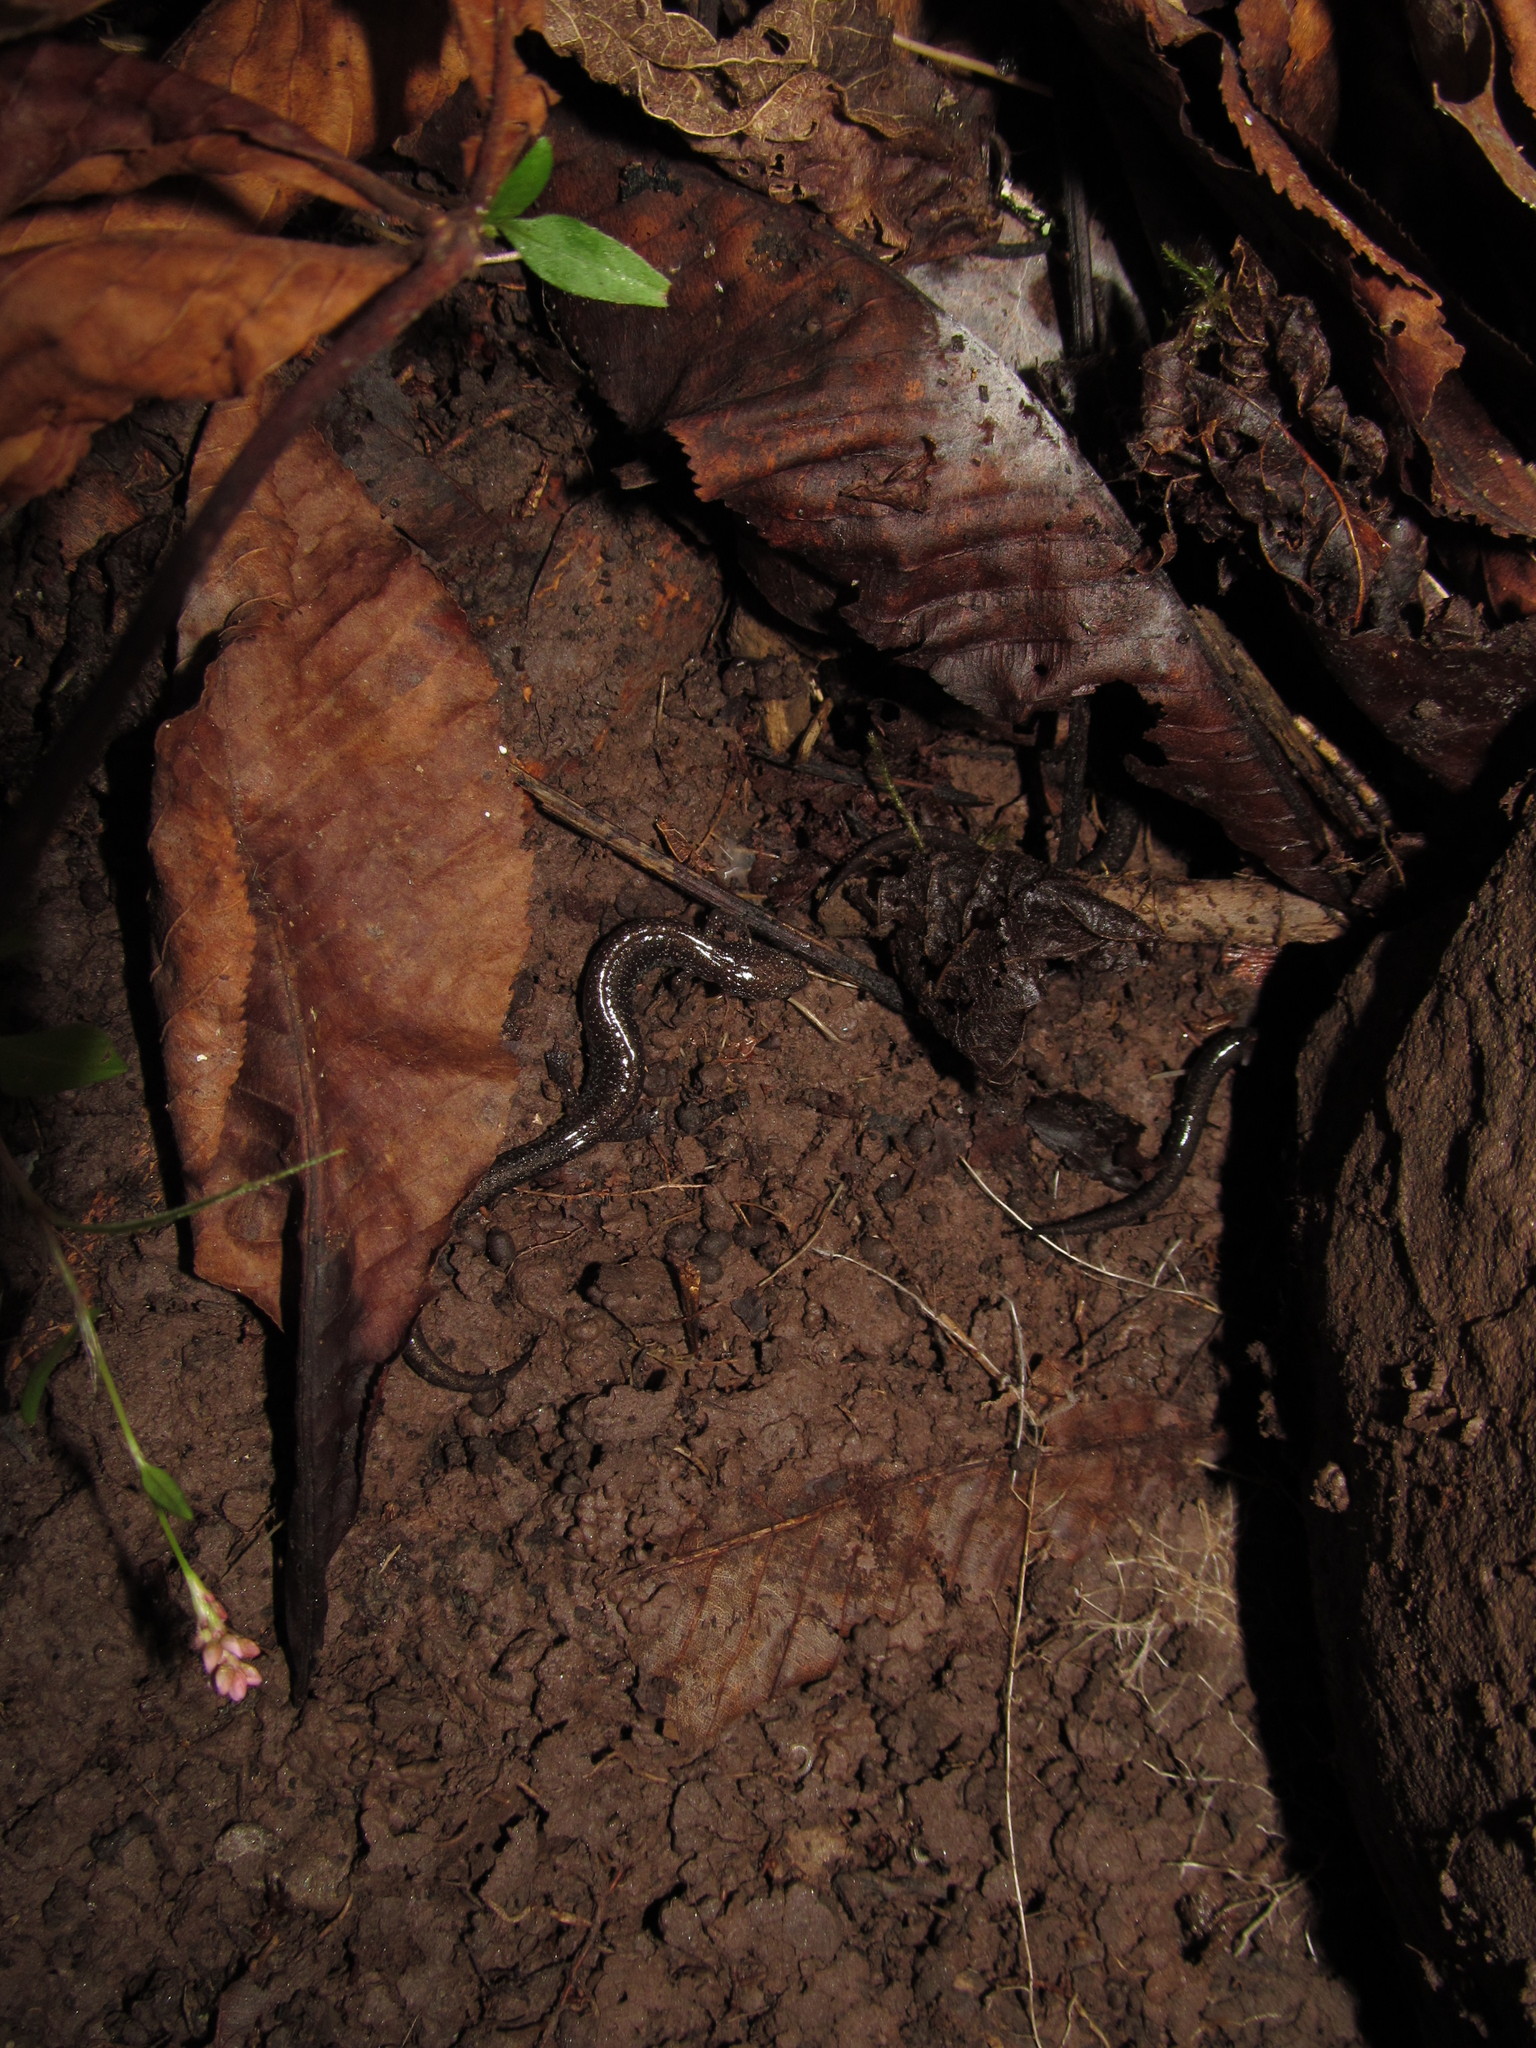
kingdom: Animalia
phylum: Chordata
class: Amphibia
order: Caudata
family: Plethodontidae
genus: Plethodon
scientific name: Plethodon cinereus
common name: Redback salamander
